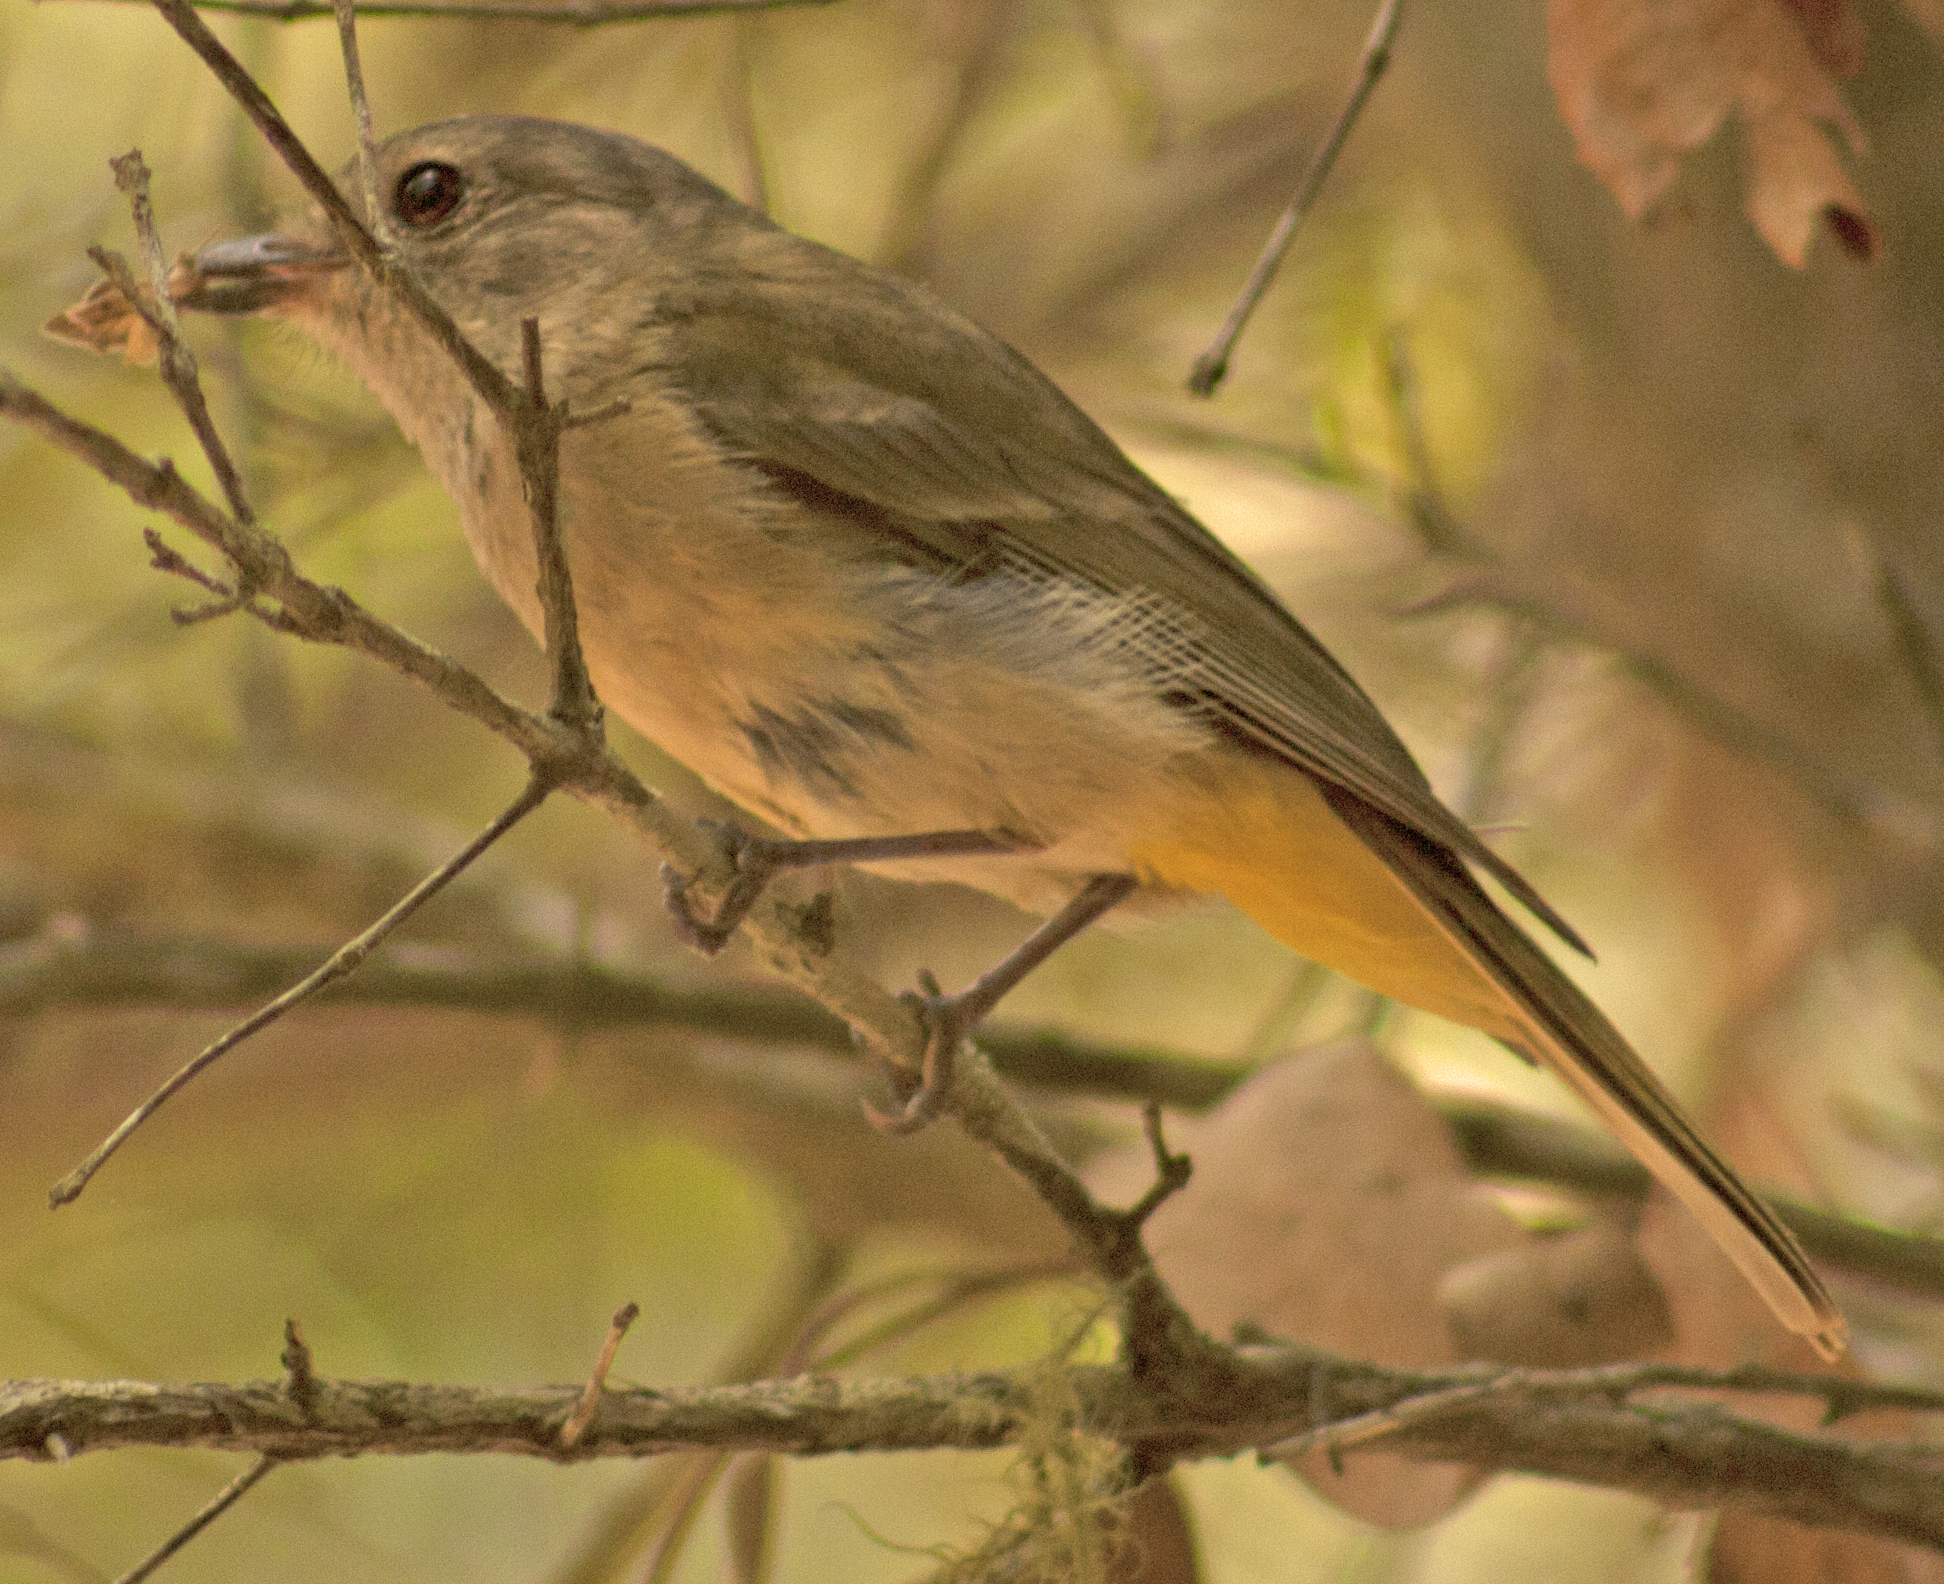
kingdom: Animalia
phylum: Chordata
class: Aves
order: Passeriformes
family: Pachycephalidae
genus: Pachycephala
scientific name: Pachycephala pectoralis
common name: Australian golden whistler
